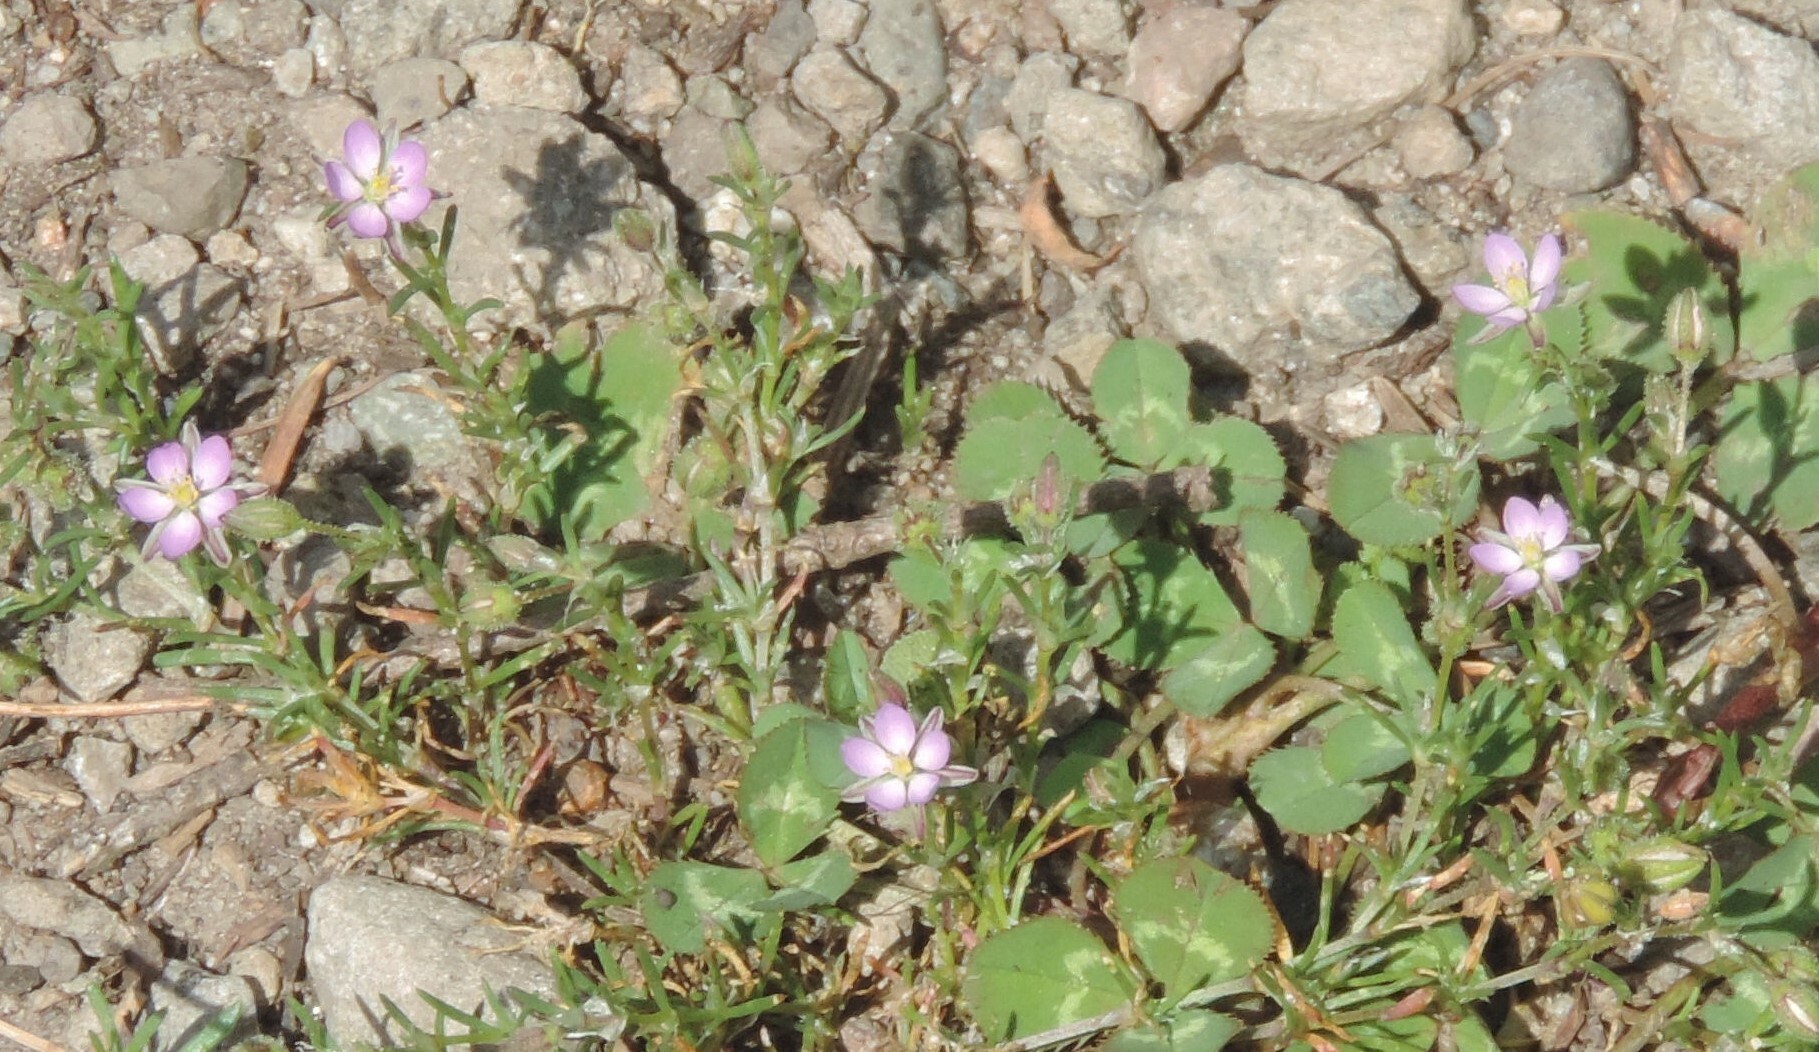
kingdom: Plantae
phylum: Tracheophyta
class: Magnoliopsida
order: Caryophyllales
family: Caryophyllaceae
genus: Spergularia
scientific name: Spergularia rubra
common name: Red sand-spurrey
